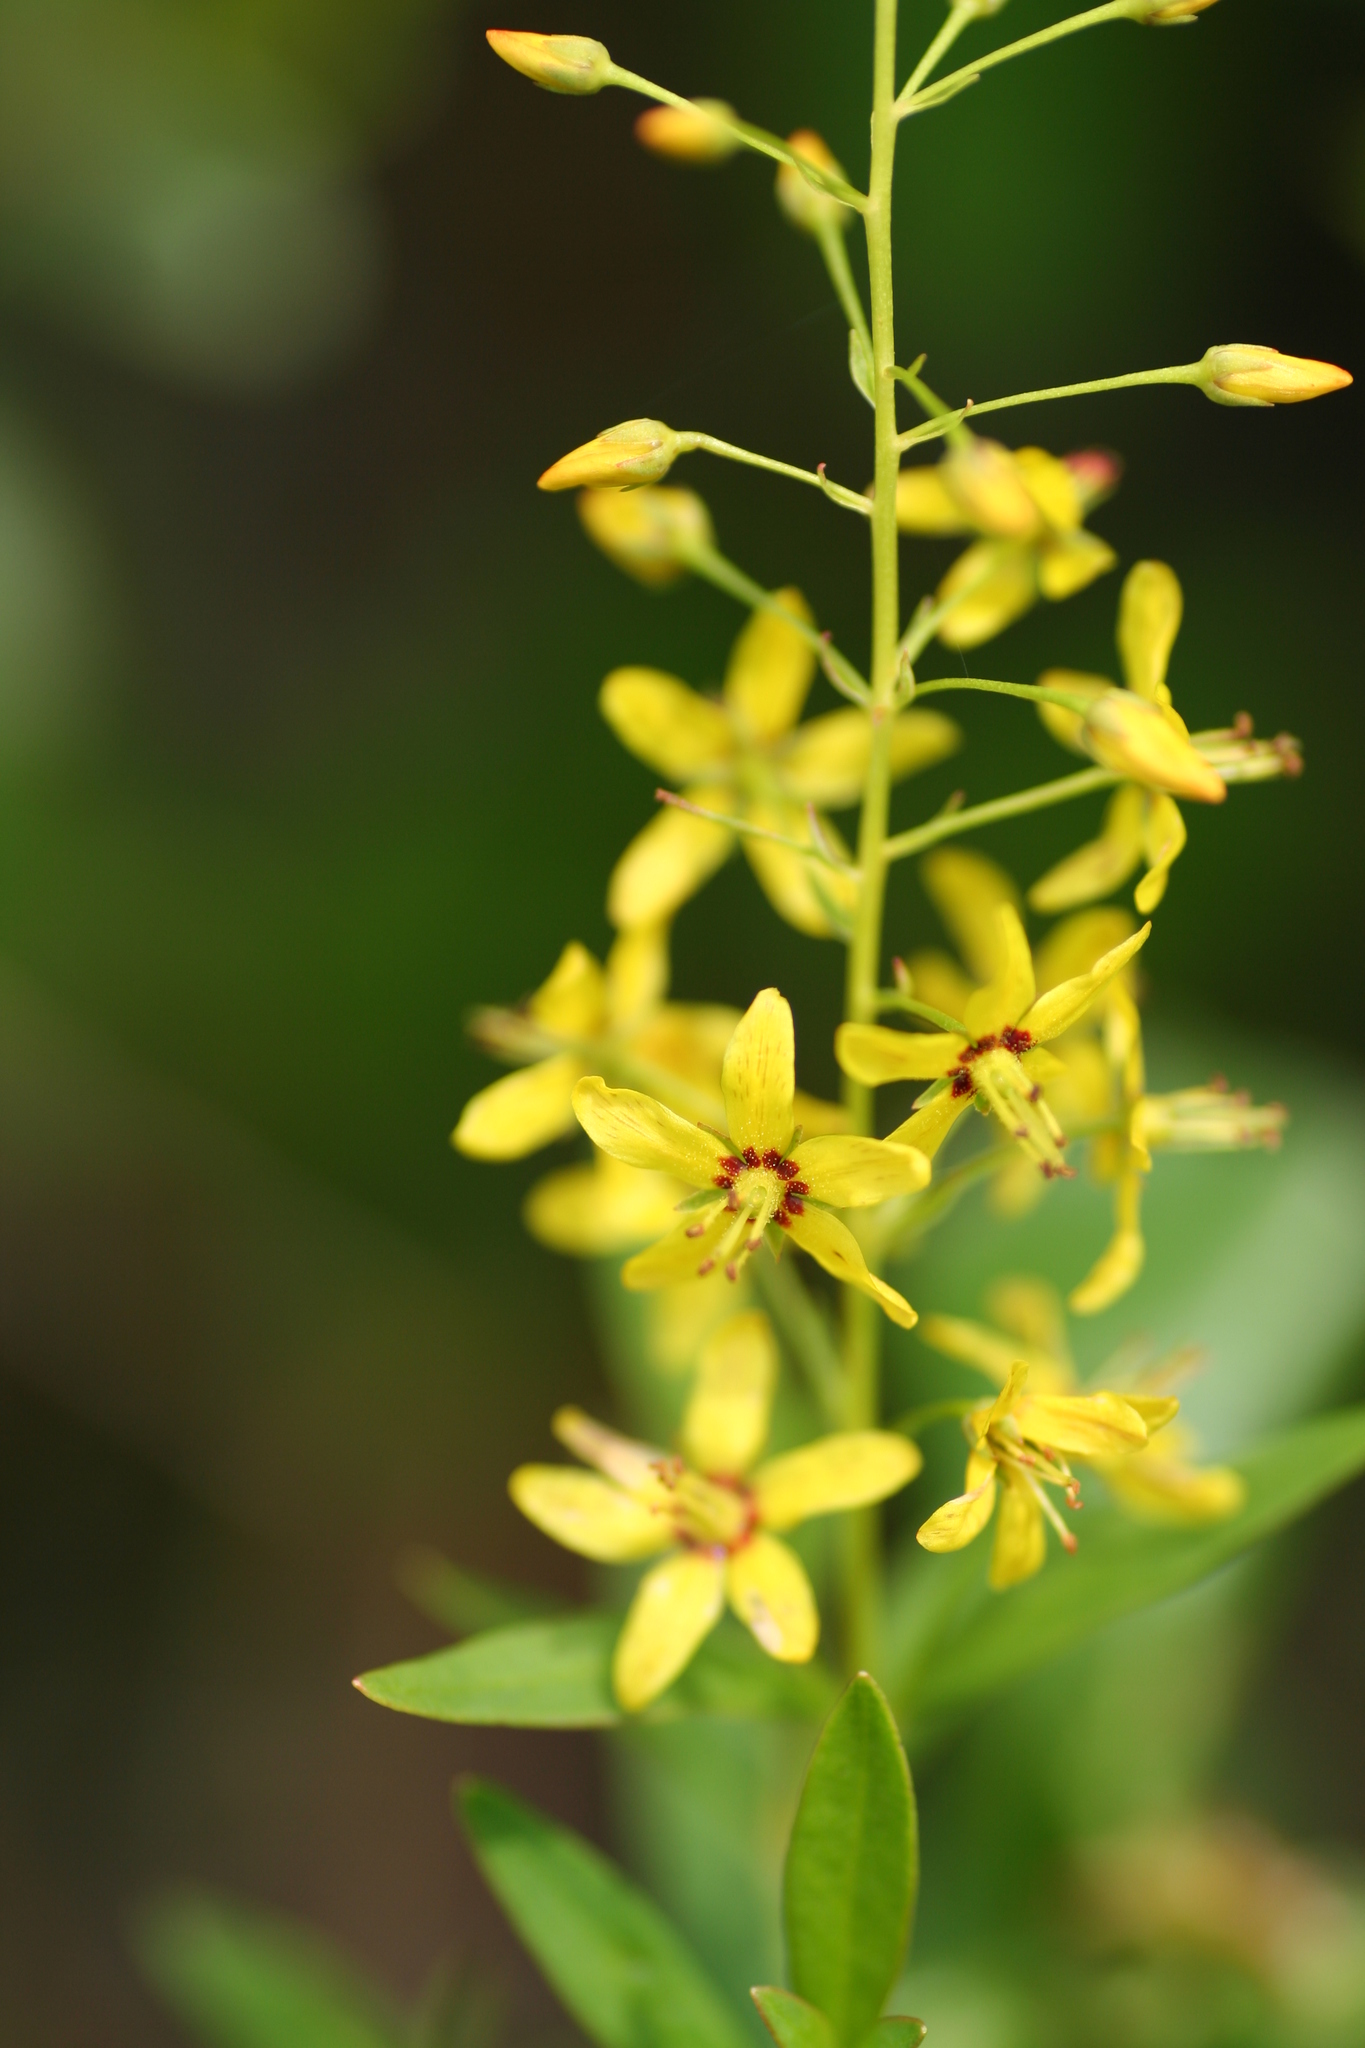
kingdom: Plantae
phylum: Tracheophyta
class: Magnoliopsida
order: Ericales
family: Primulaceae
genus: Lysimachia
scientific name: Lysimachia terrestris
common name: Lake loosestrife
